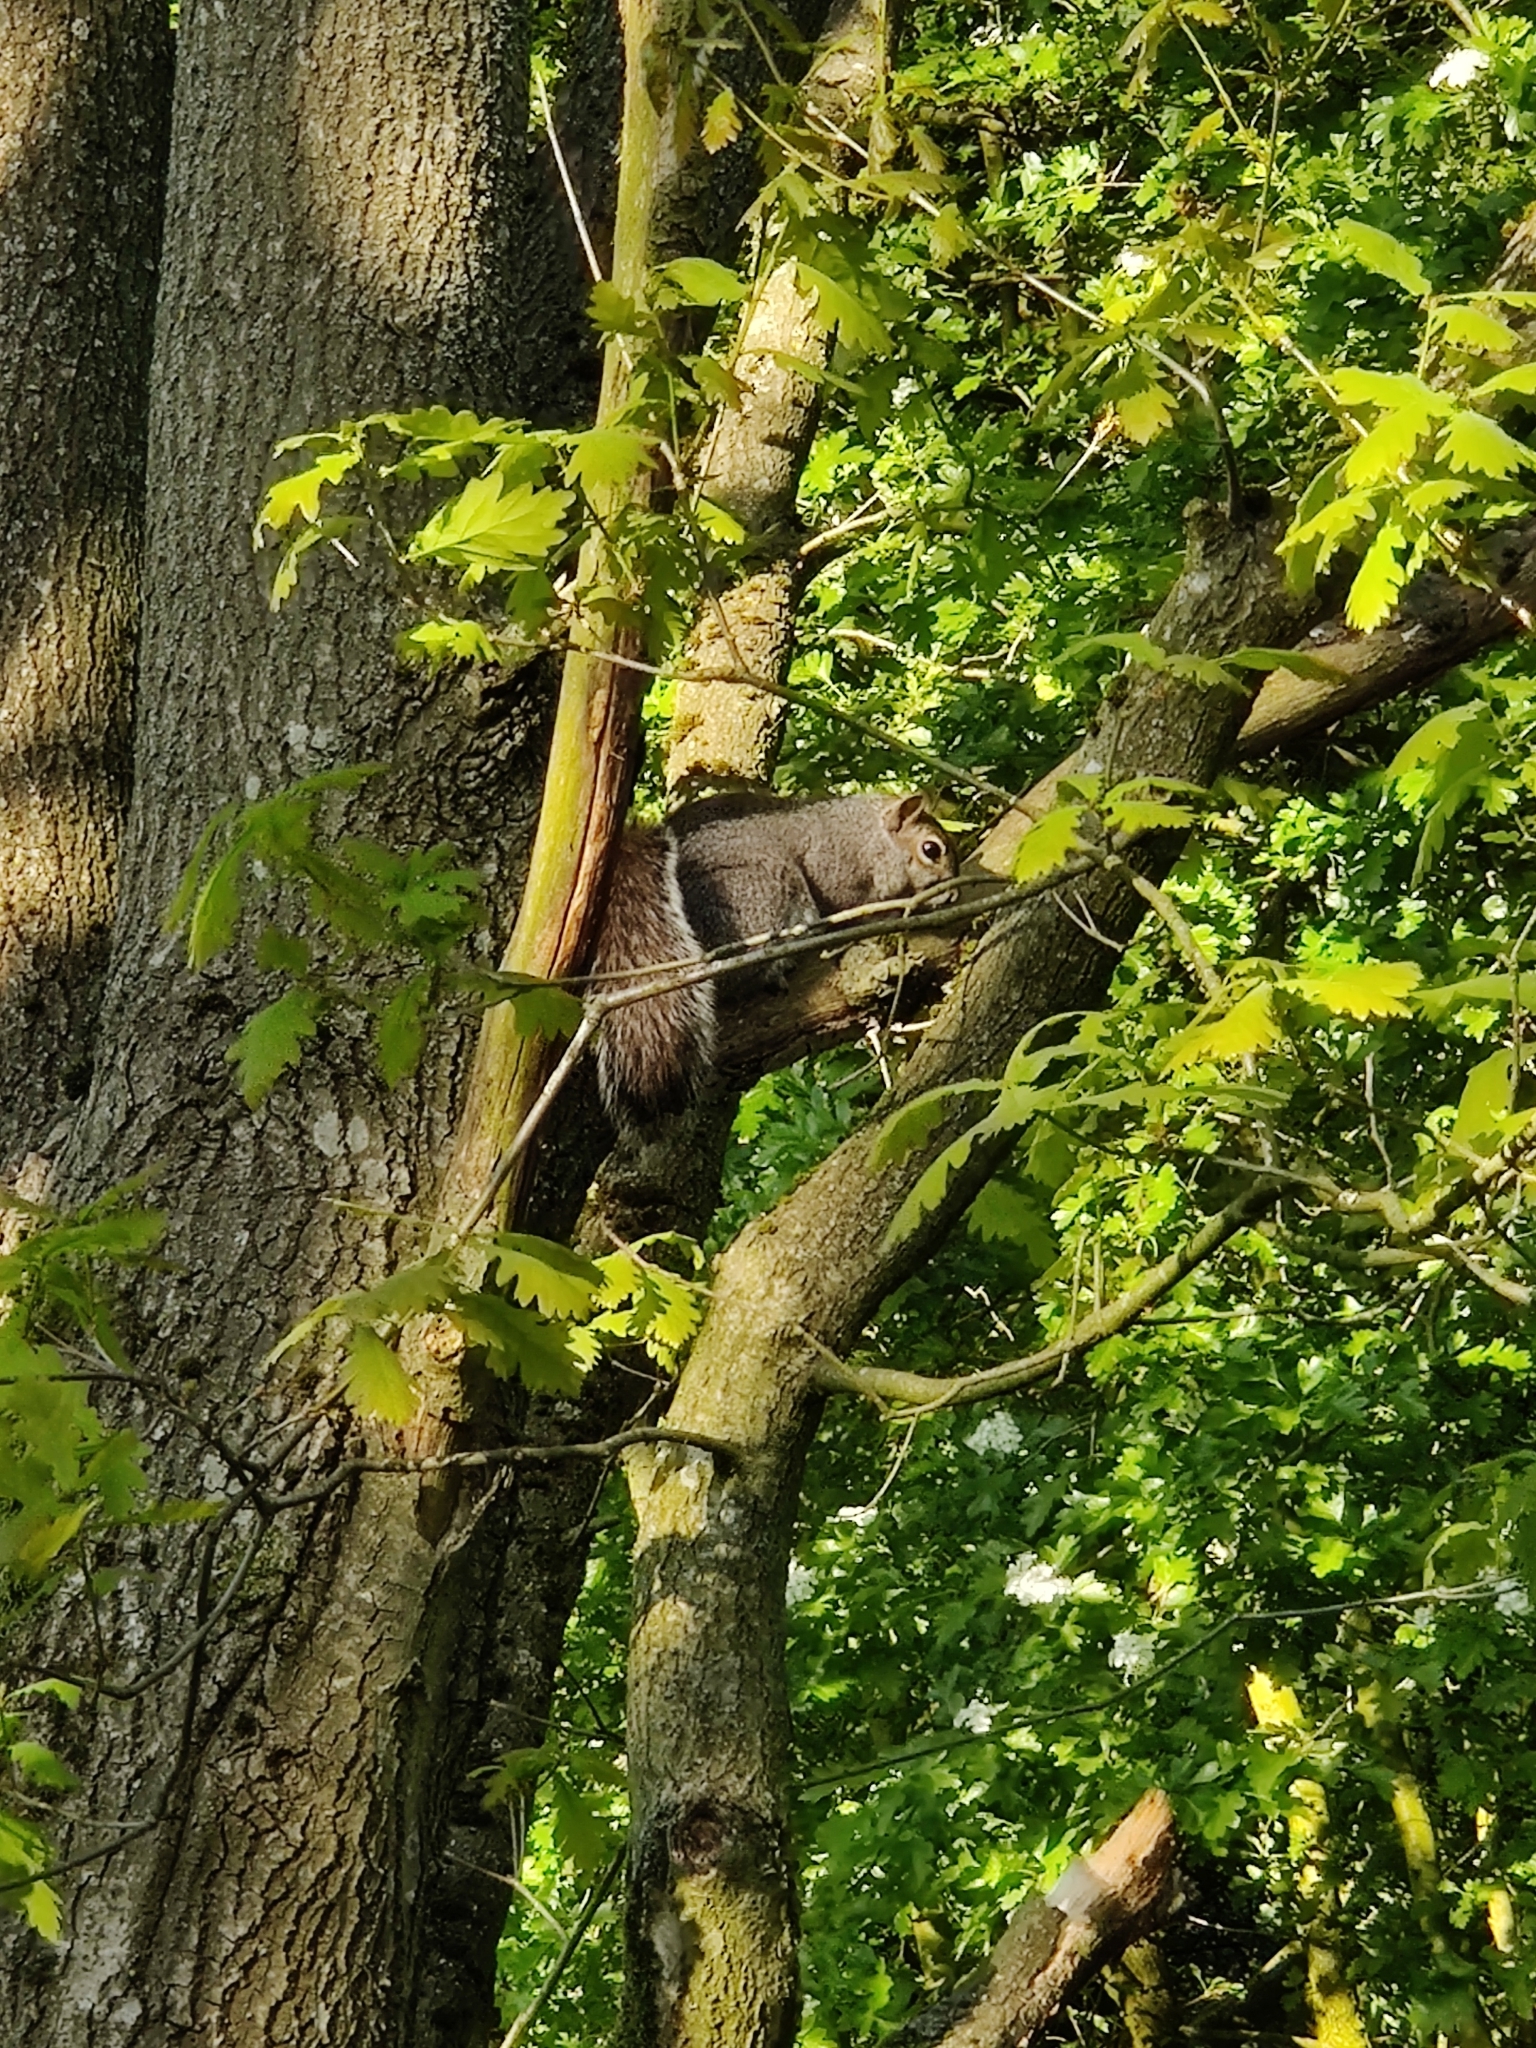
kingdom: Animalia
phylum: Chordata
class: Mammalia
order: Rodentia
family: Sciuridae
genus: Sciurus
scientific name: Sciurus carolinensis
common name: Eastern gray squirrel
